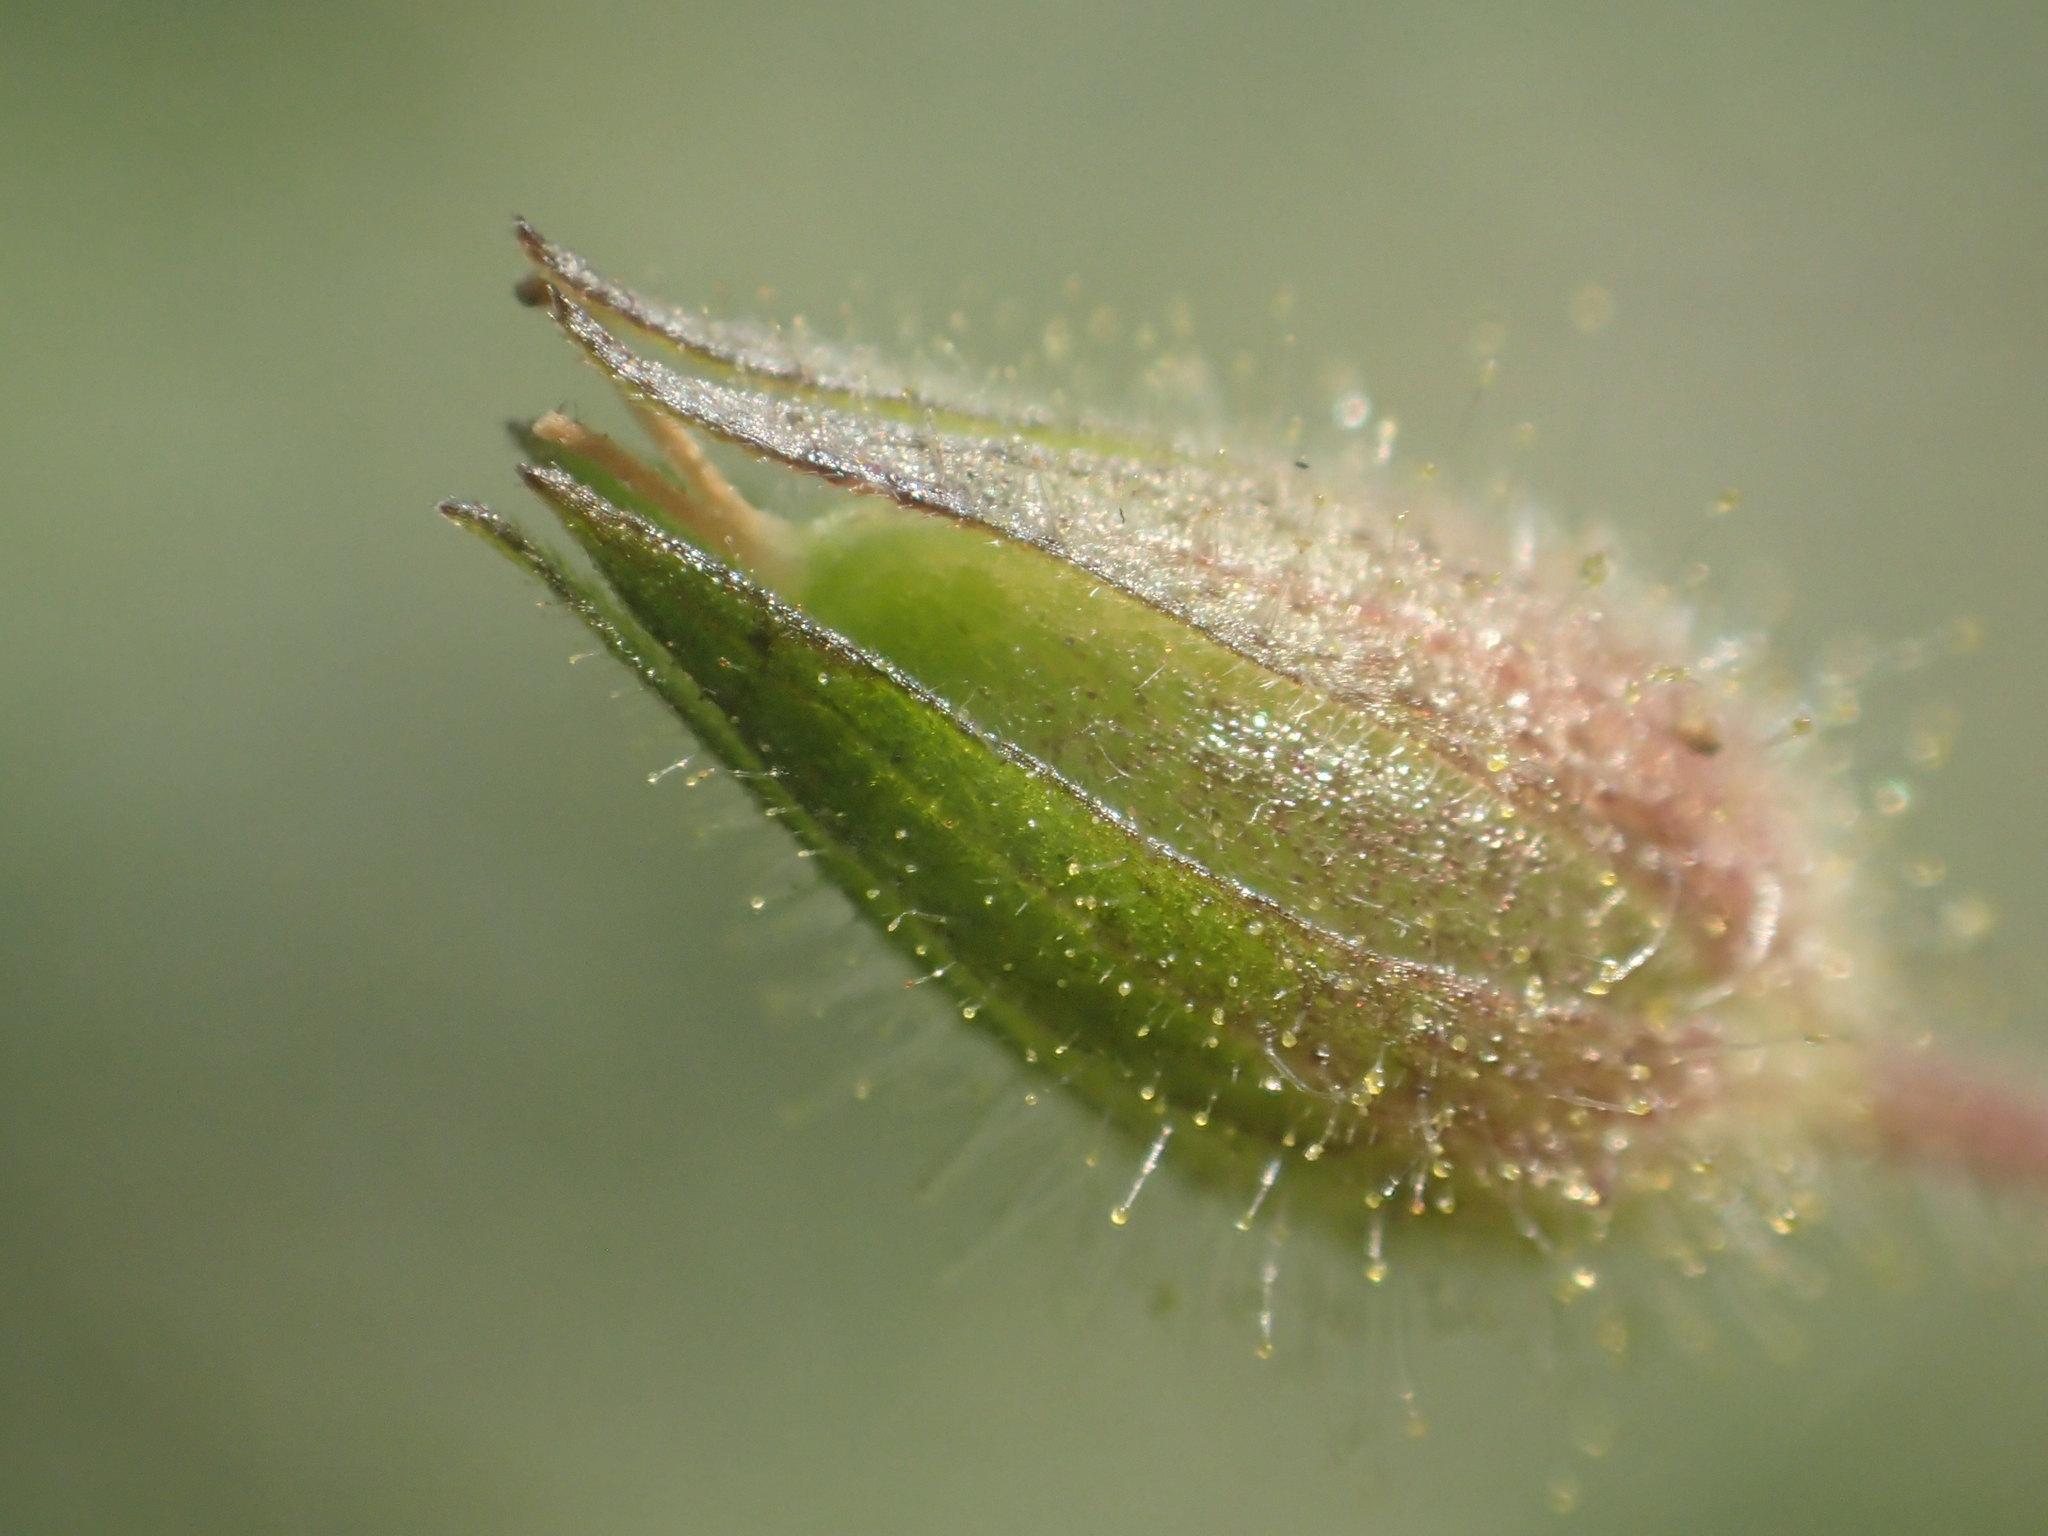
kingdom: Plantae
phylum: Tracheophyta
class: Magnoliopsida
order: Solanales
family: Hydroleaceae
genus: Hydrolea
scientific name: Hydrolea zeylanica
